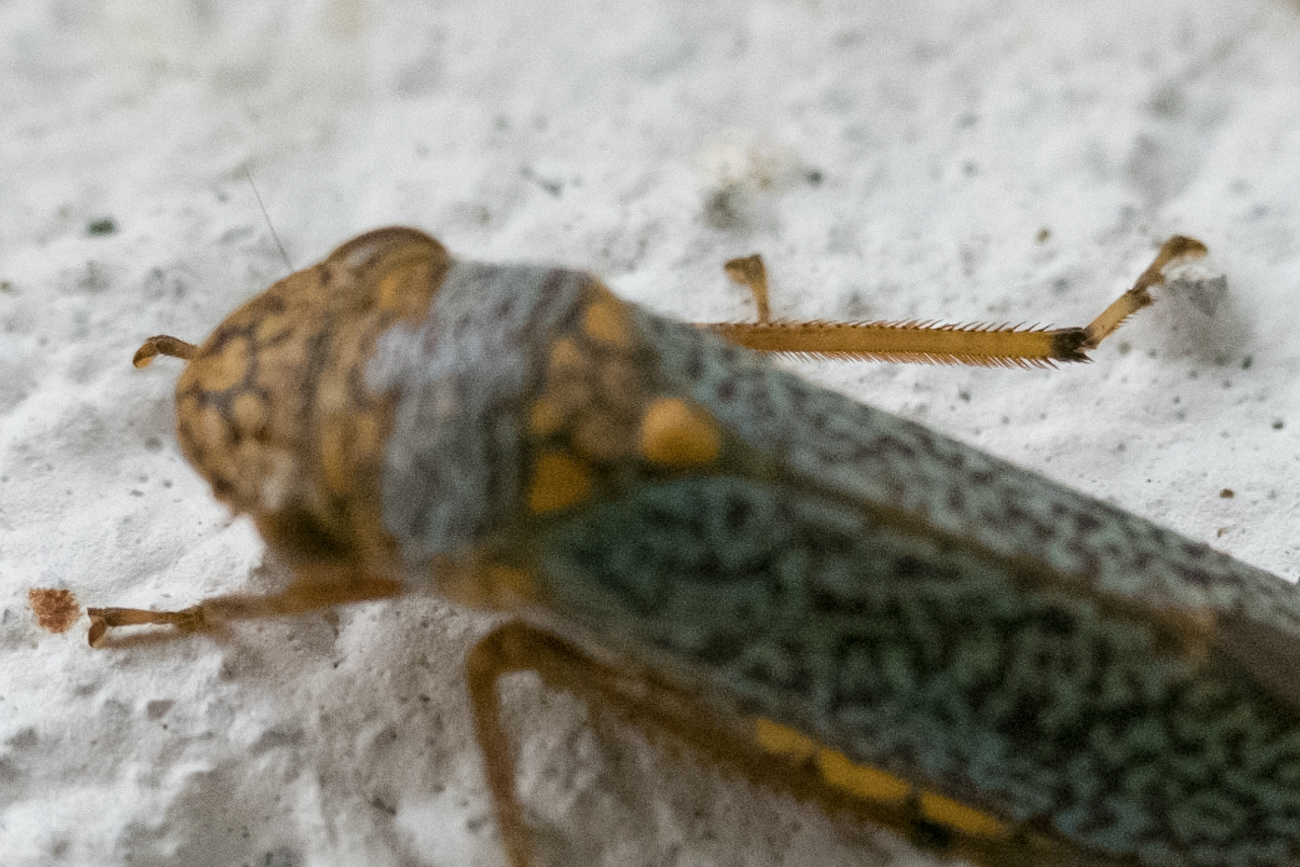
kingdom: Animalia
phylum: Arthropoda
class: Insecta
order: Hemiptera
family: Cicadellidae
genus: Oncometopia
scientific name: Oncometopia orbona
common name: Broad-headed sharpshooter
